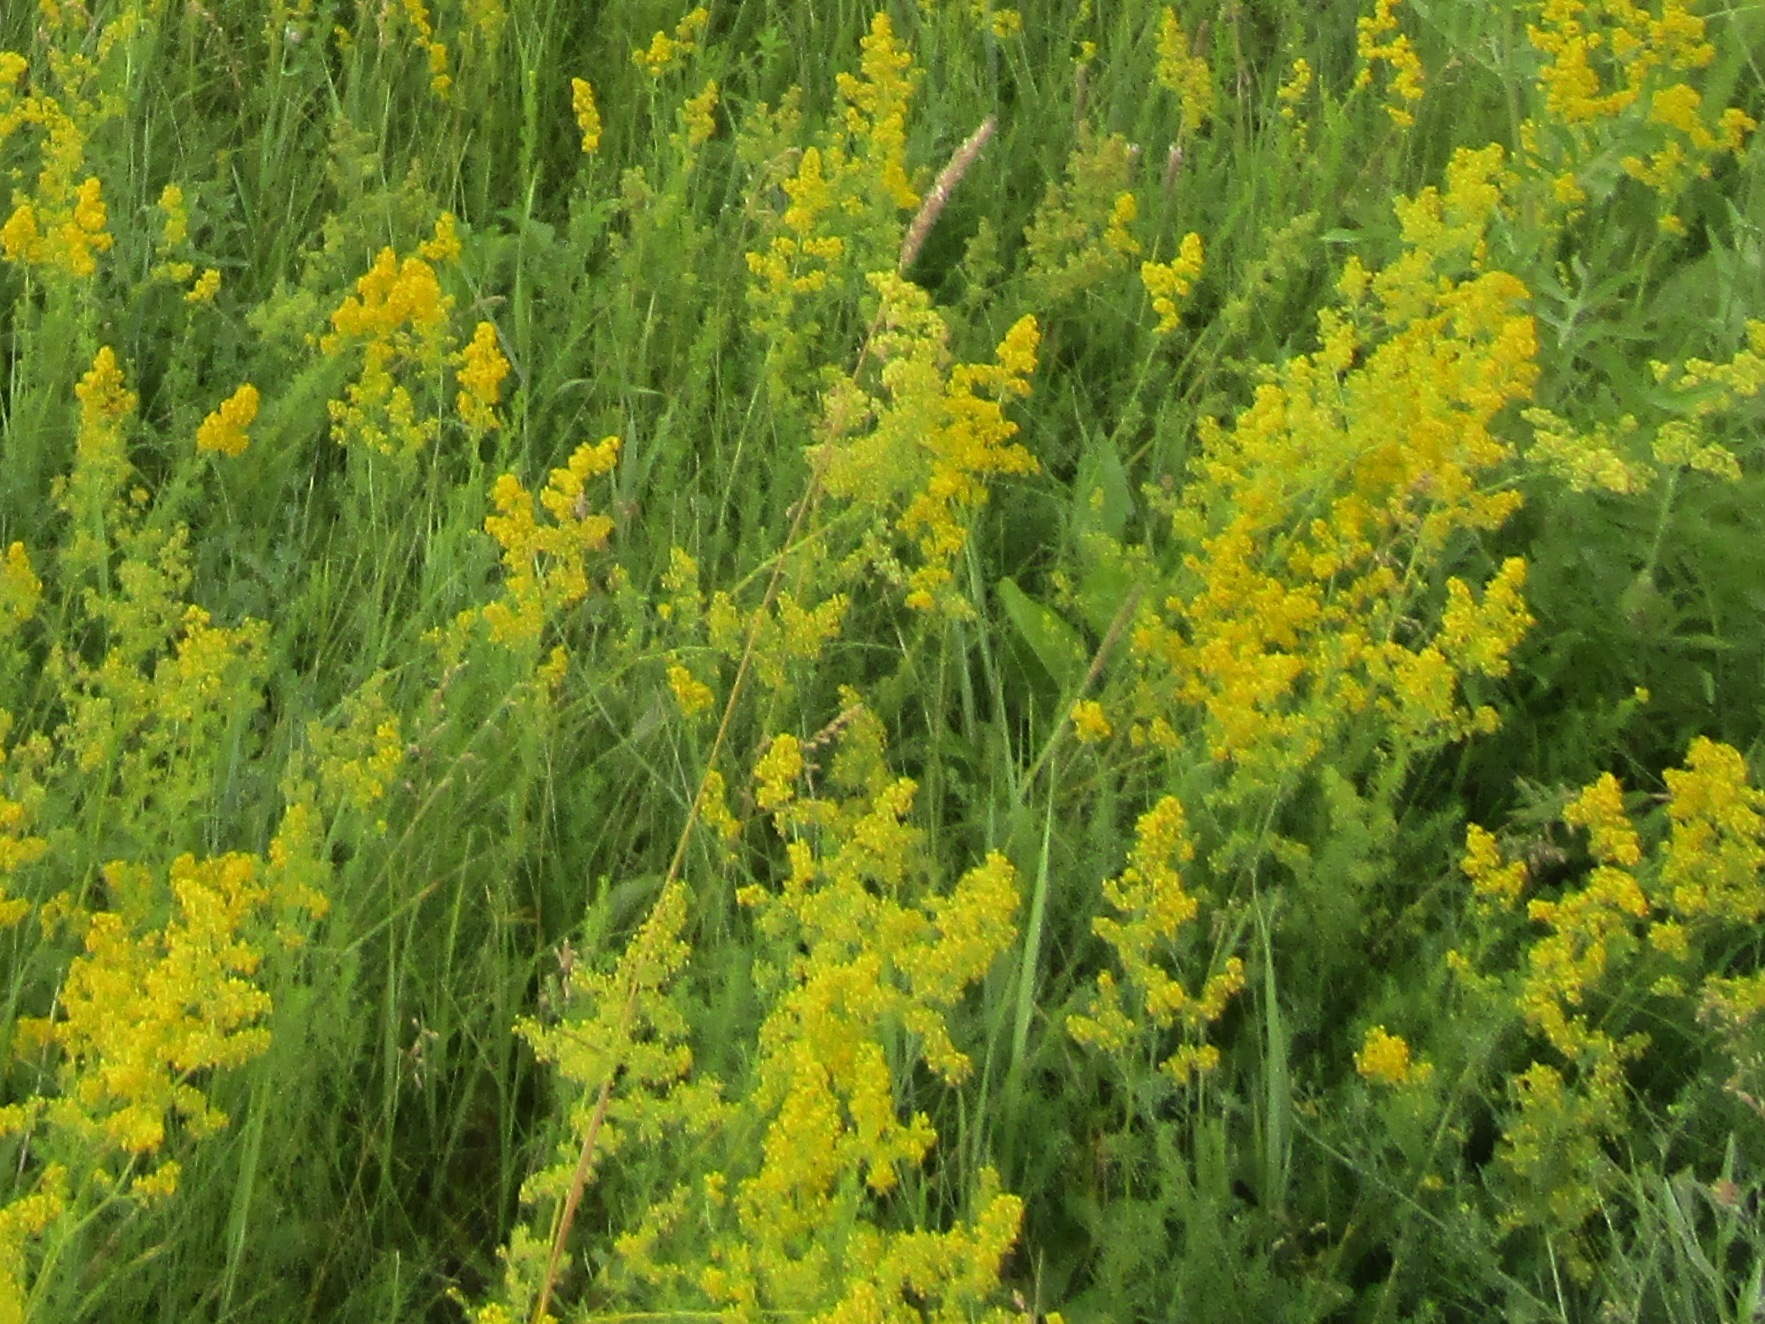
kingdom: Plantae
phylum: Tracheophyta
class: Magnoliopsida
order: Gentianales
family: Rubiaceae
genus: Galium
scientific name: Galium verum
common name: Lady's bedstraw
